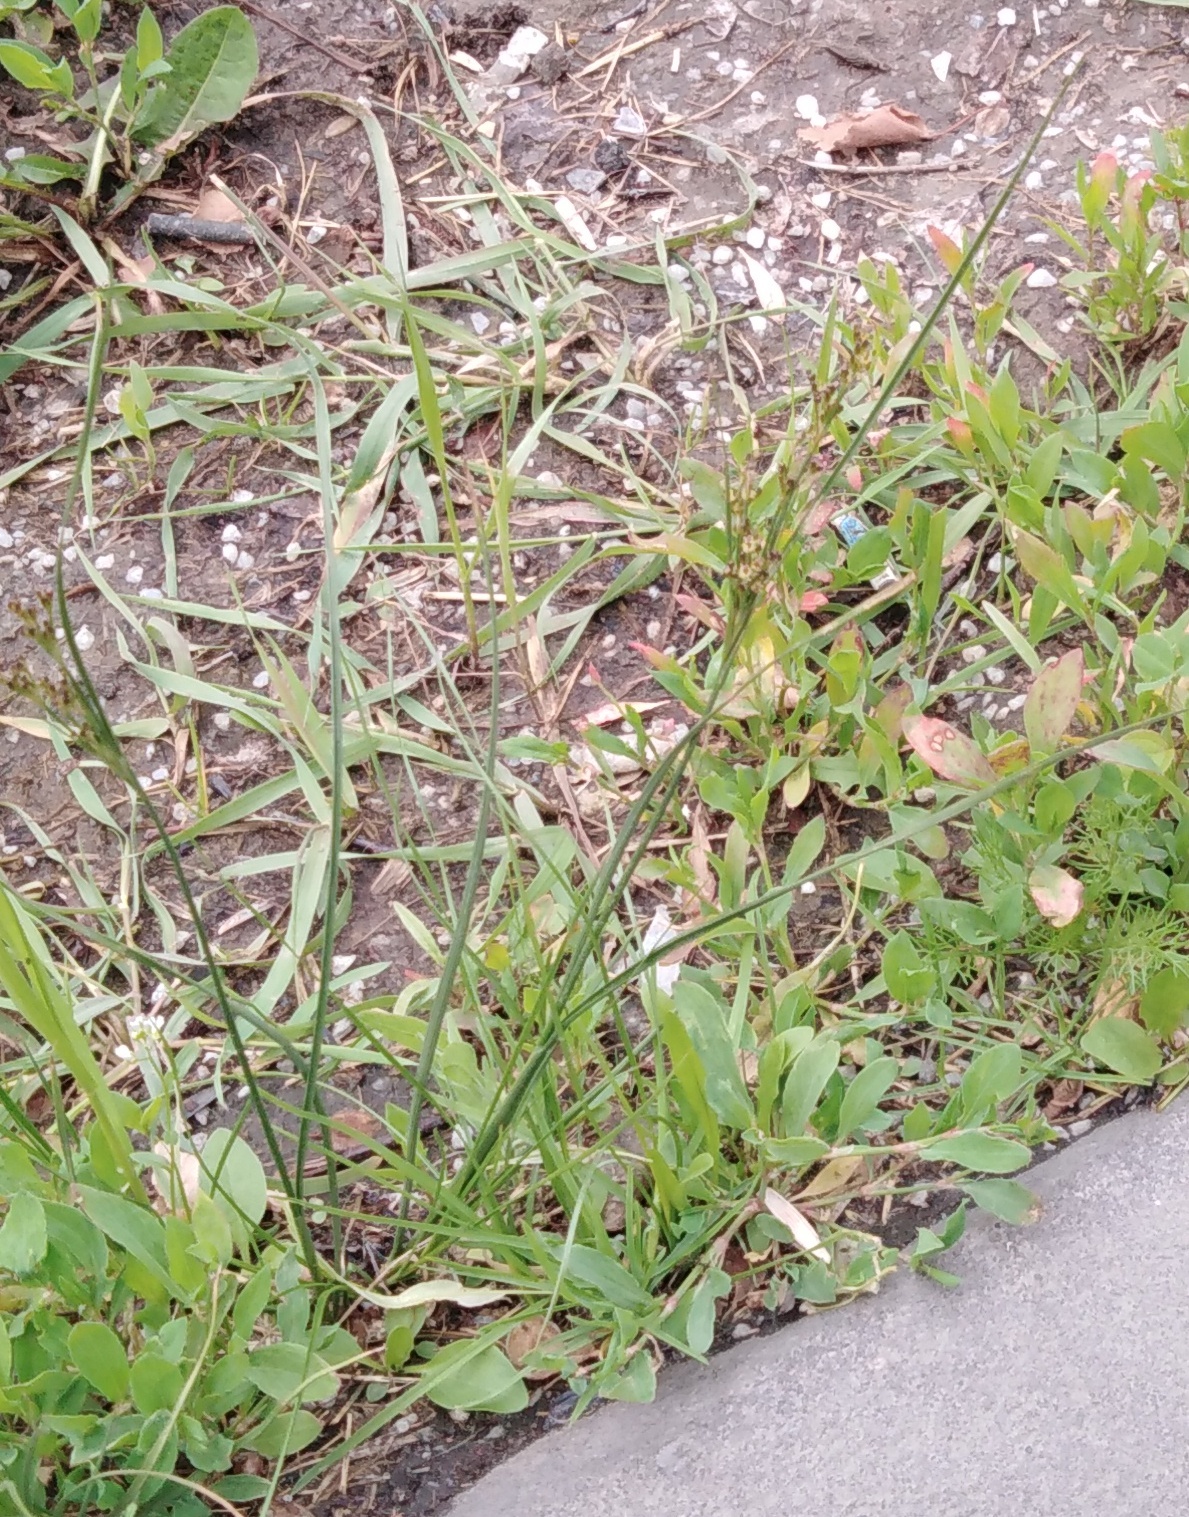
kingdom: Plantae
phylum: Tracheophyta
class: Liliopsida
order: Poales
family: Juncaceae
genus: Juncus
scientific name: Juncus compressus
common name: Round-fruited rush
